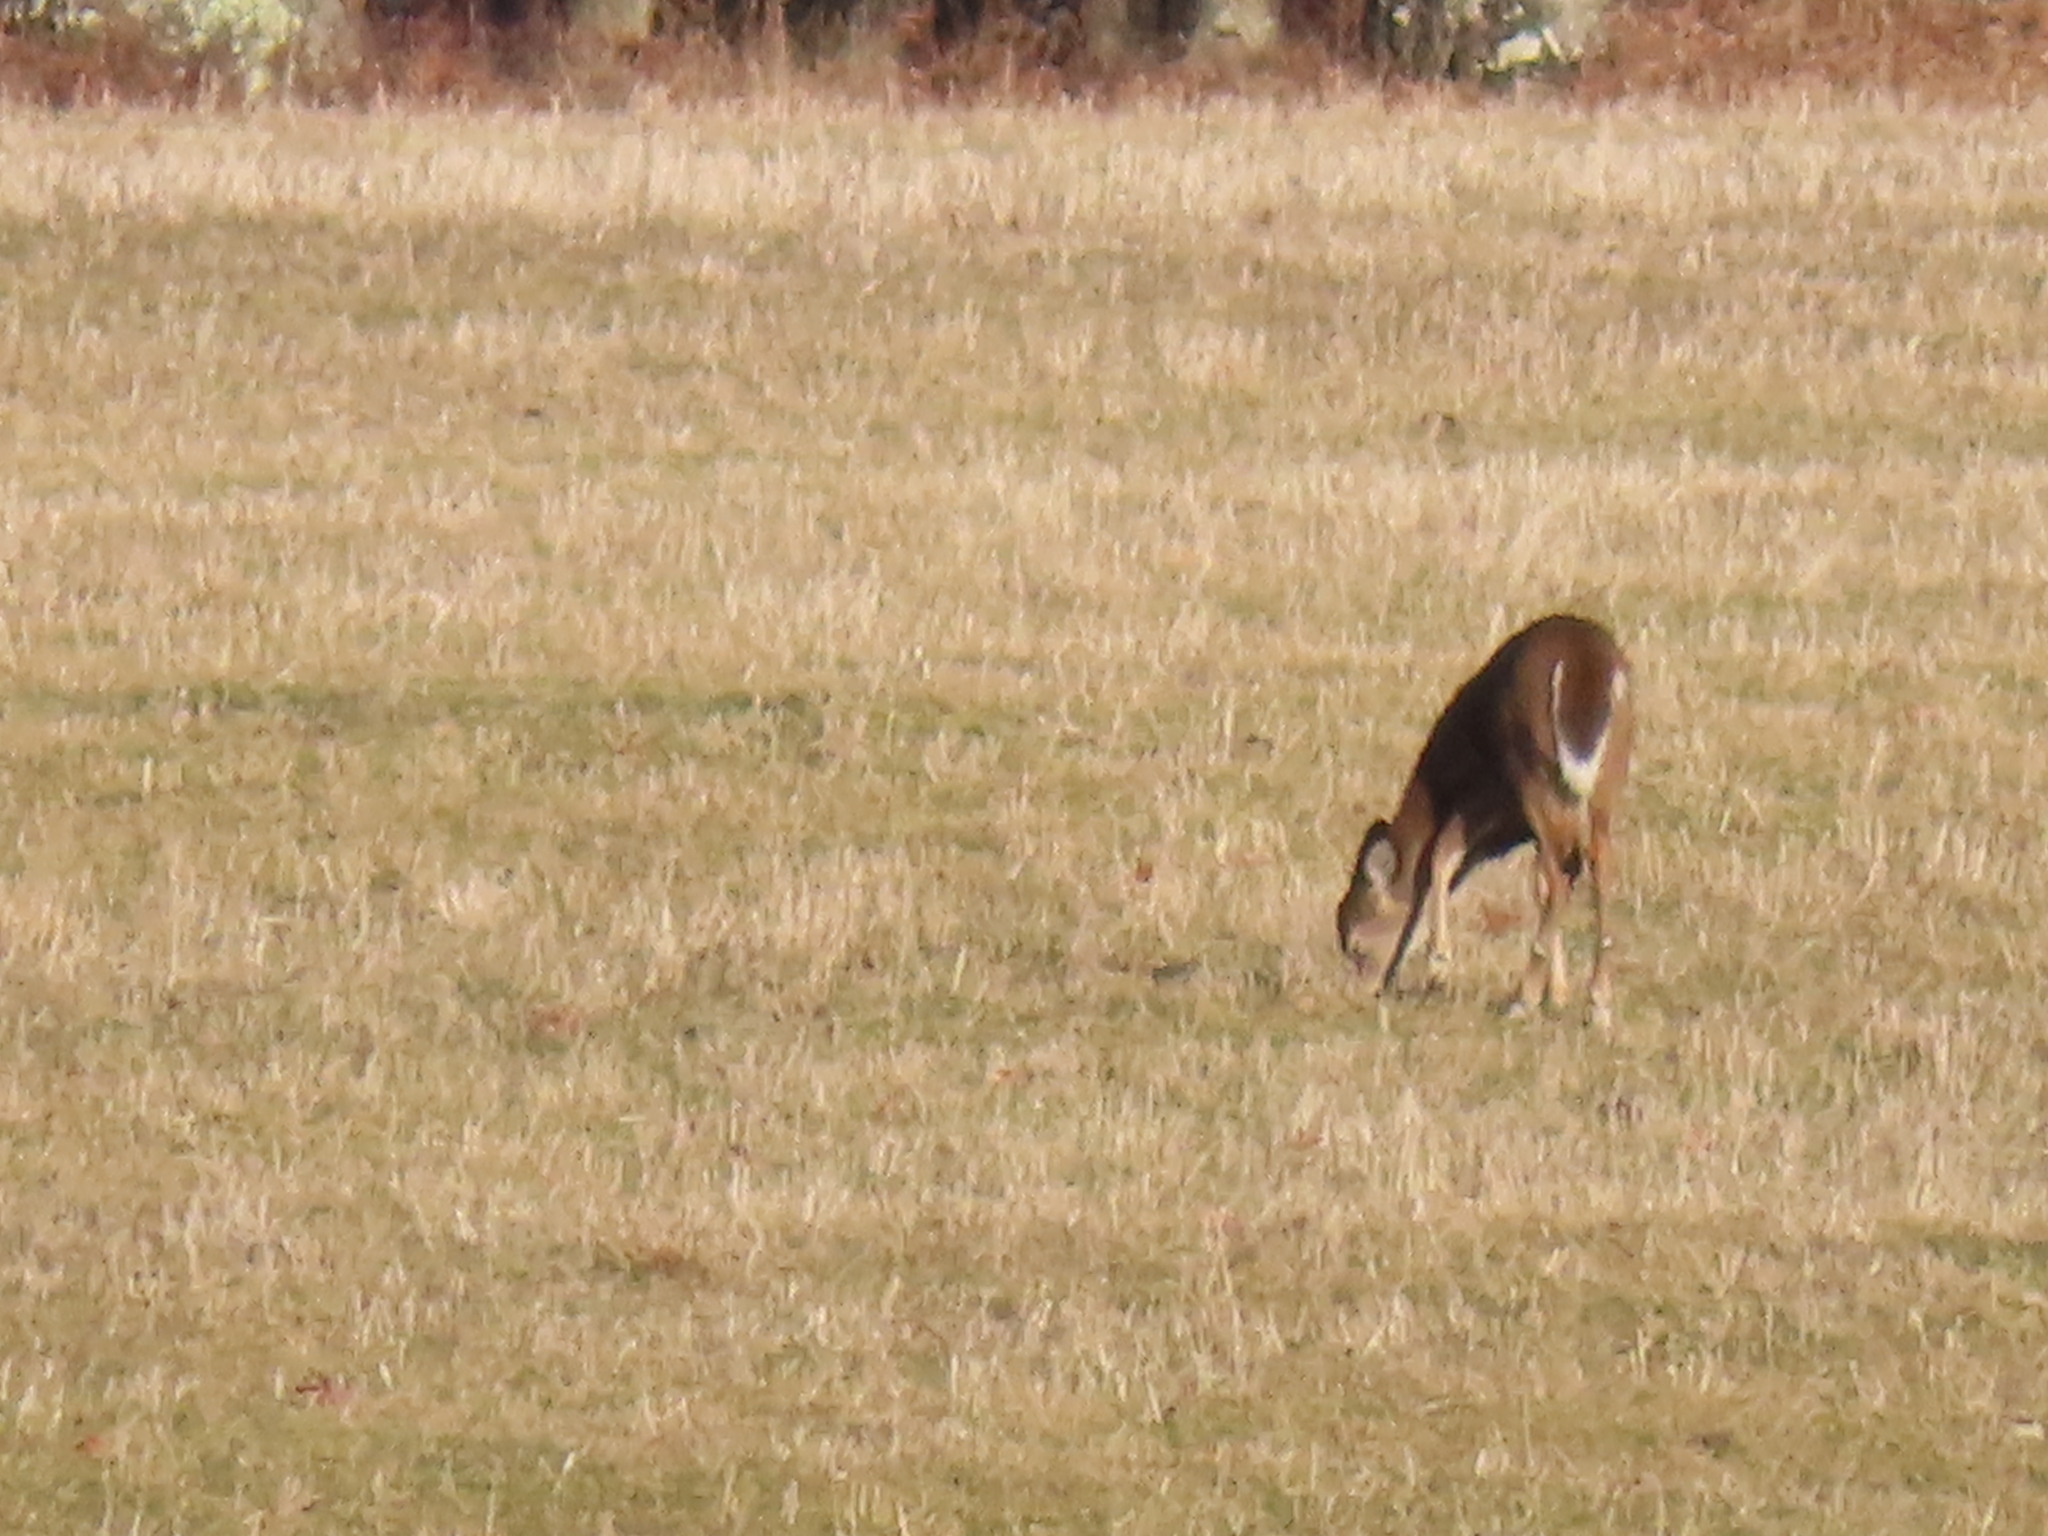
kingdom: Animalia
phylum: Chordata
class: Mammalia
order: Artiodactyla
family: Cervidae
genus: Odocoileus
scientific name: Odocoileus virginianus
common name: White-tailed deer
